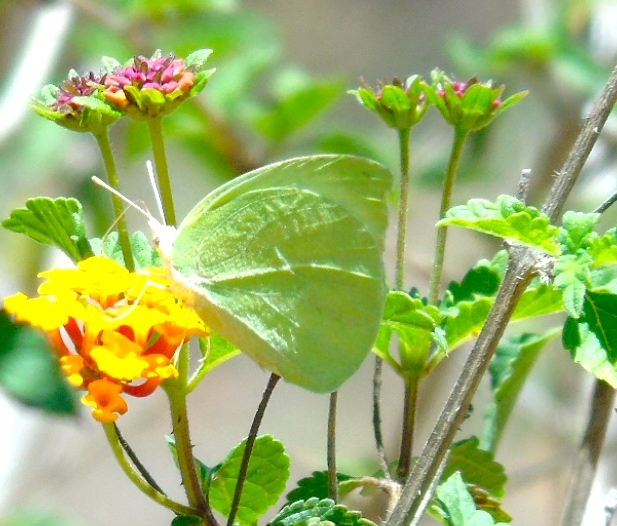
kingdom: Animalia
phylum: Arthropoda
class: Insecta
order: Lepidoptera
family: Pieridae
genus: Kricogonia
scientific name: Kricogonia lyside
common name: Guayacan sulphur,
